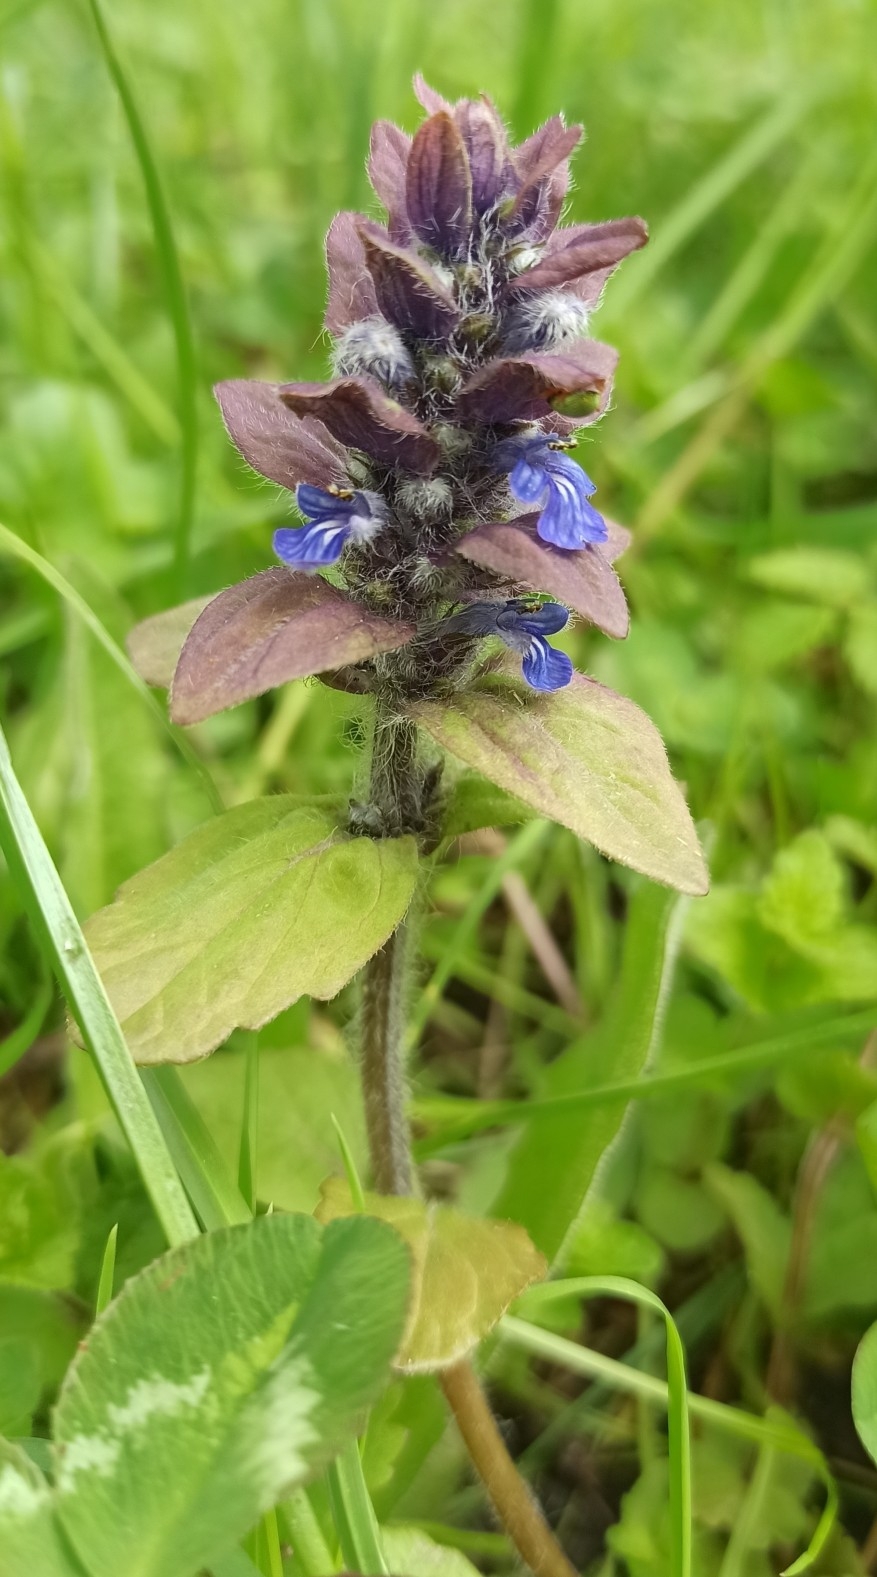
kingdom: Plantae
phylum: Tracheophyta
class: Magnoliopsida
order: Lamiales
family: Lamiaceae
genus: Ajuga
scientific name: Ajuga reptans
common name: Bugle
